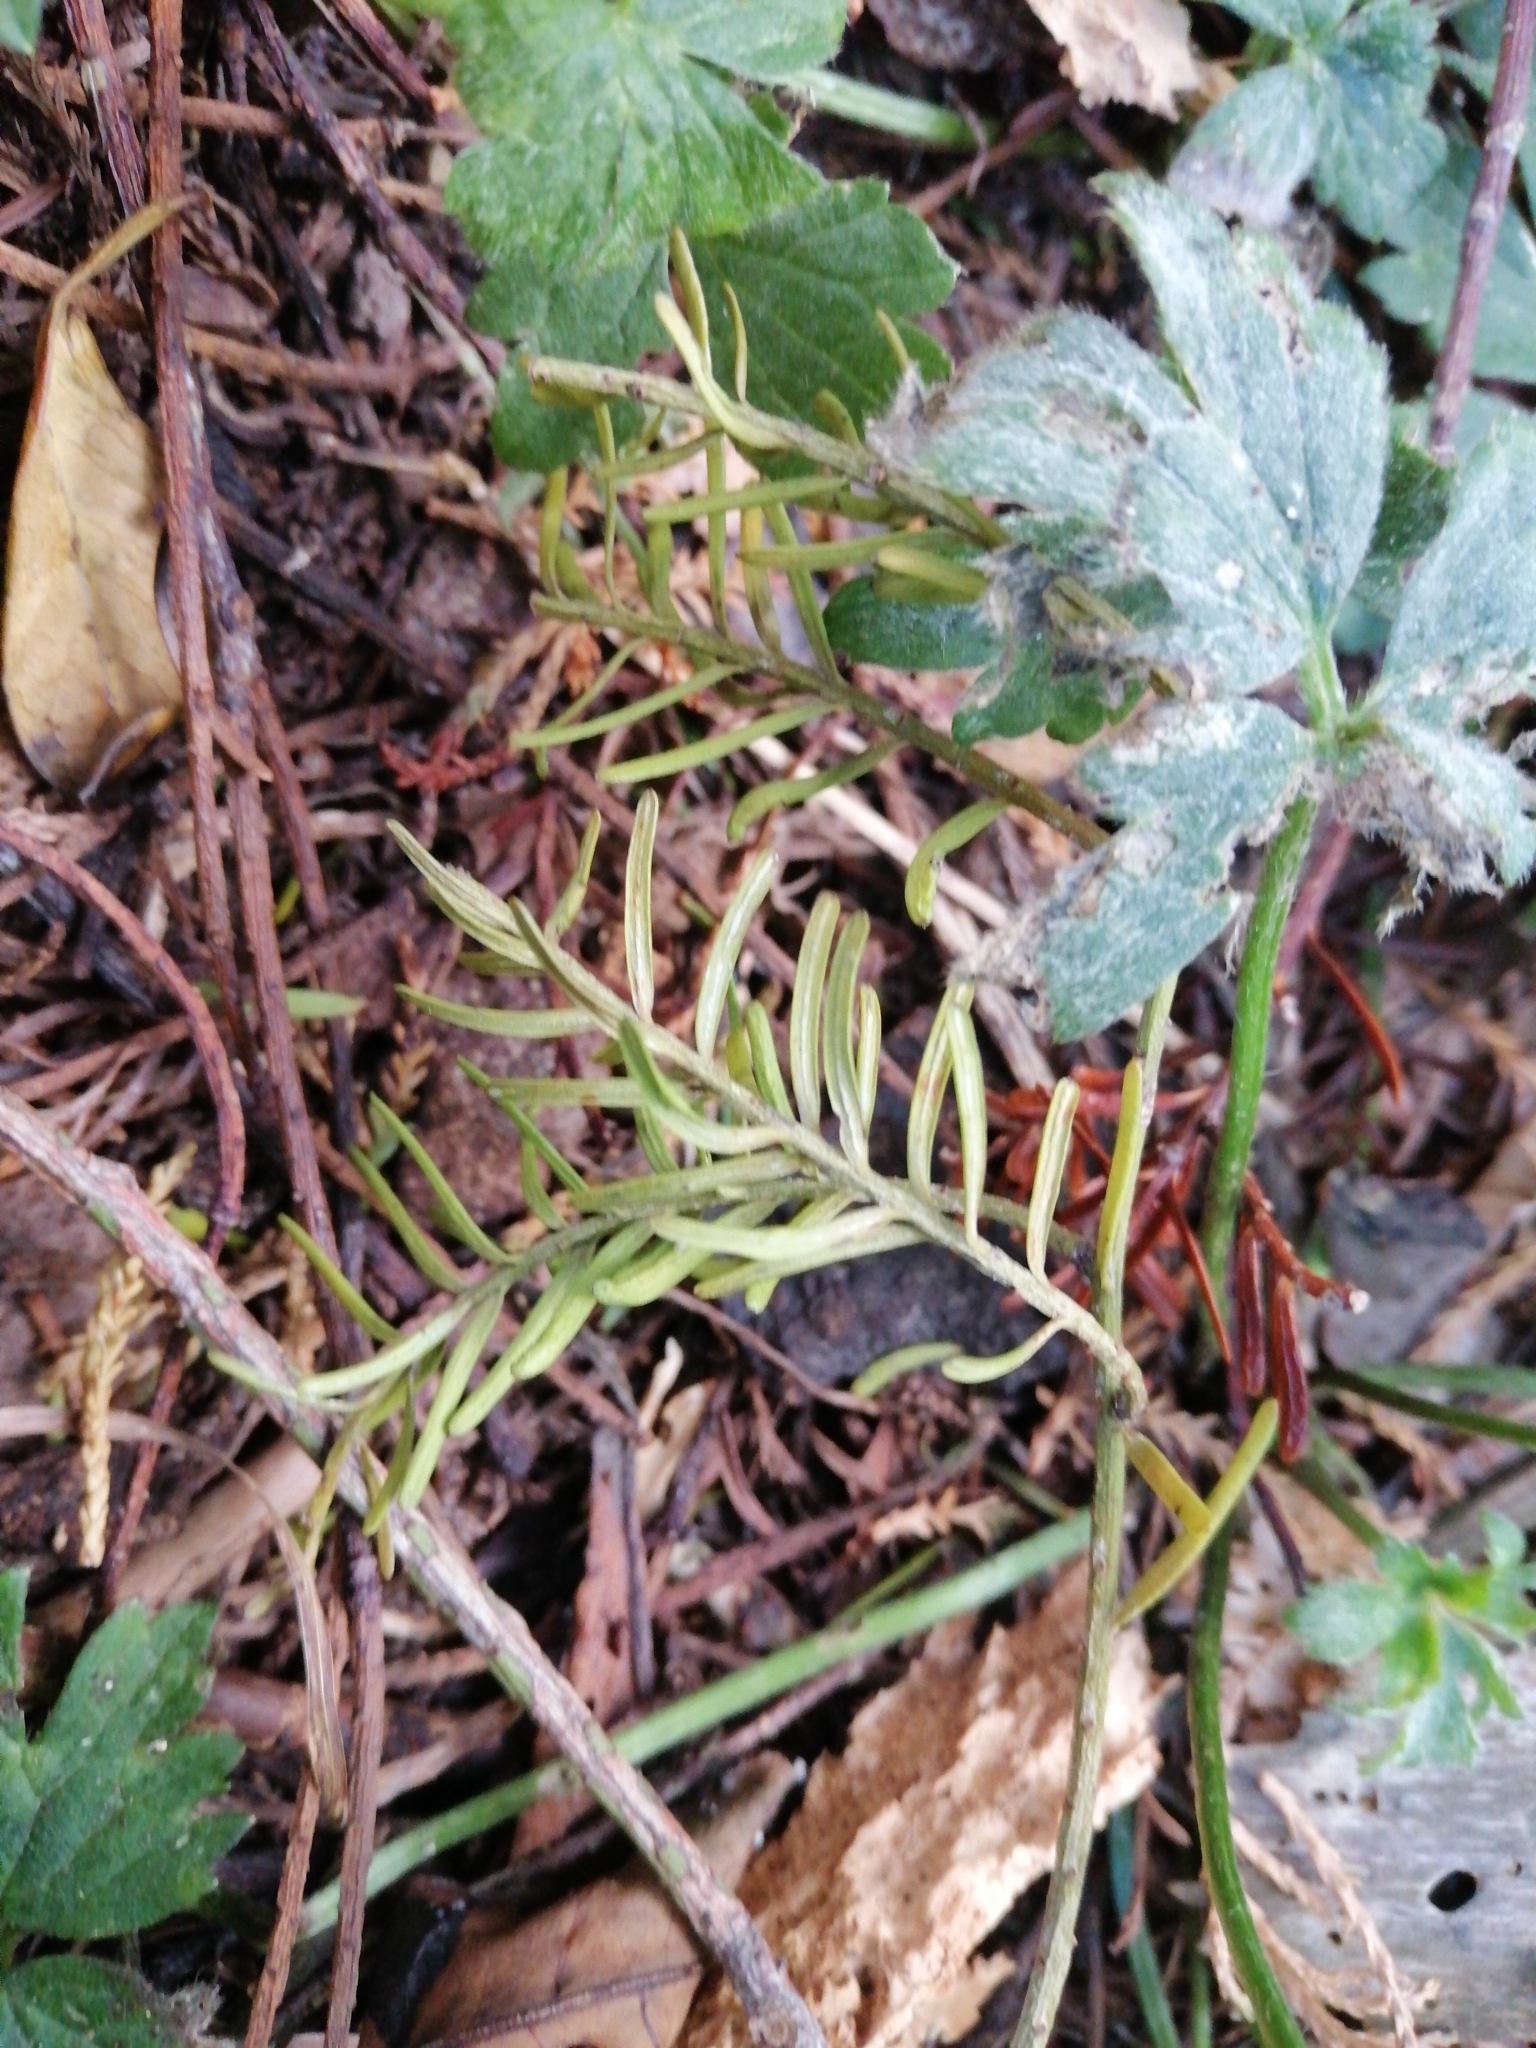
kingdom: Plantae
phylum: Tracheophyta
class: Pinopsida
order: Pinales
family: Podocarpaceae
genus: Prumnopitys
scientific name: Prumnopitys taxifolia
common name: Matai
